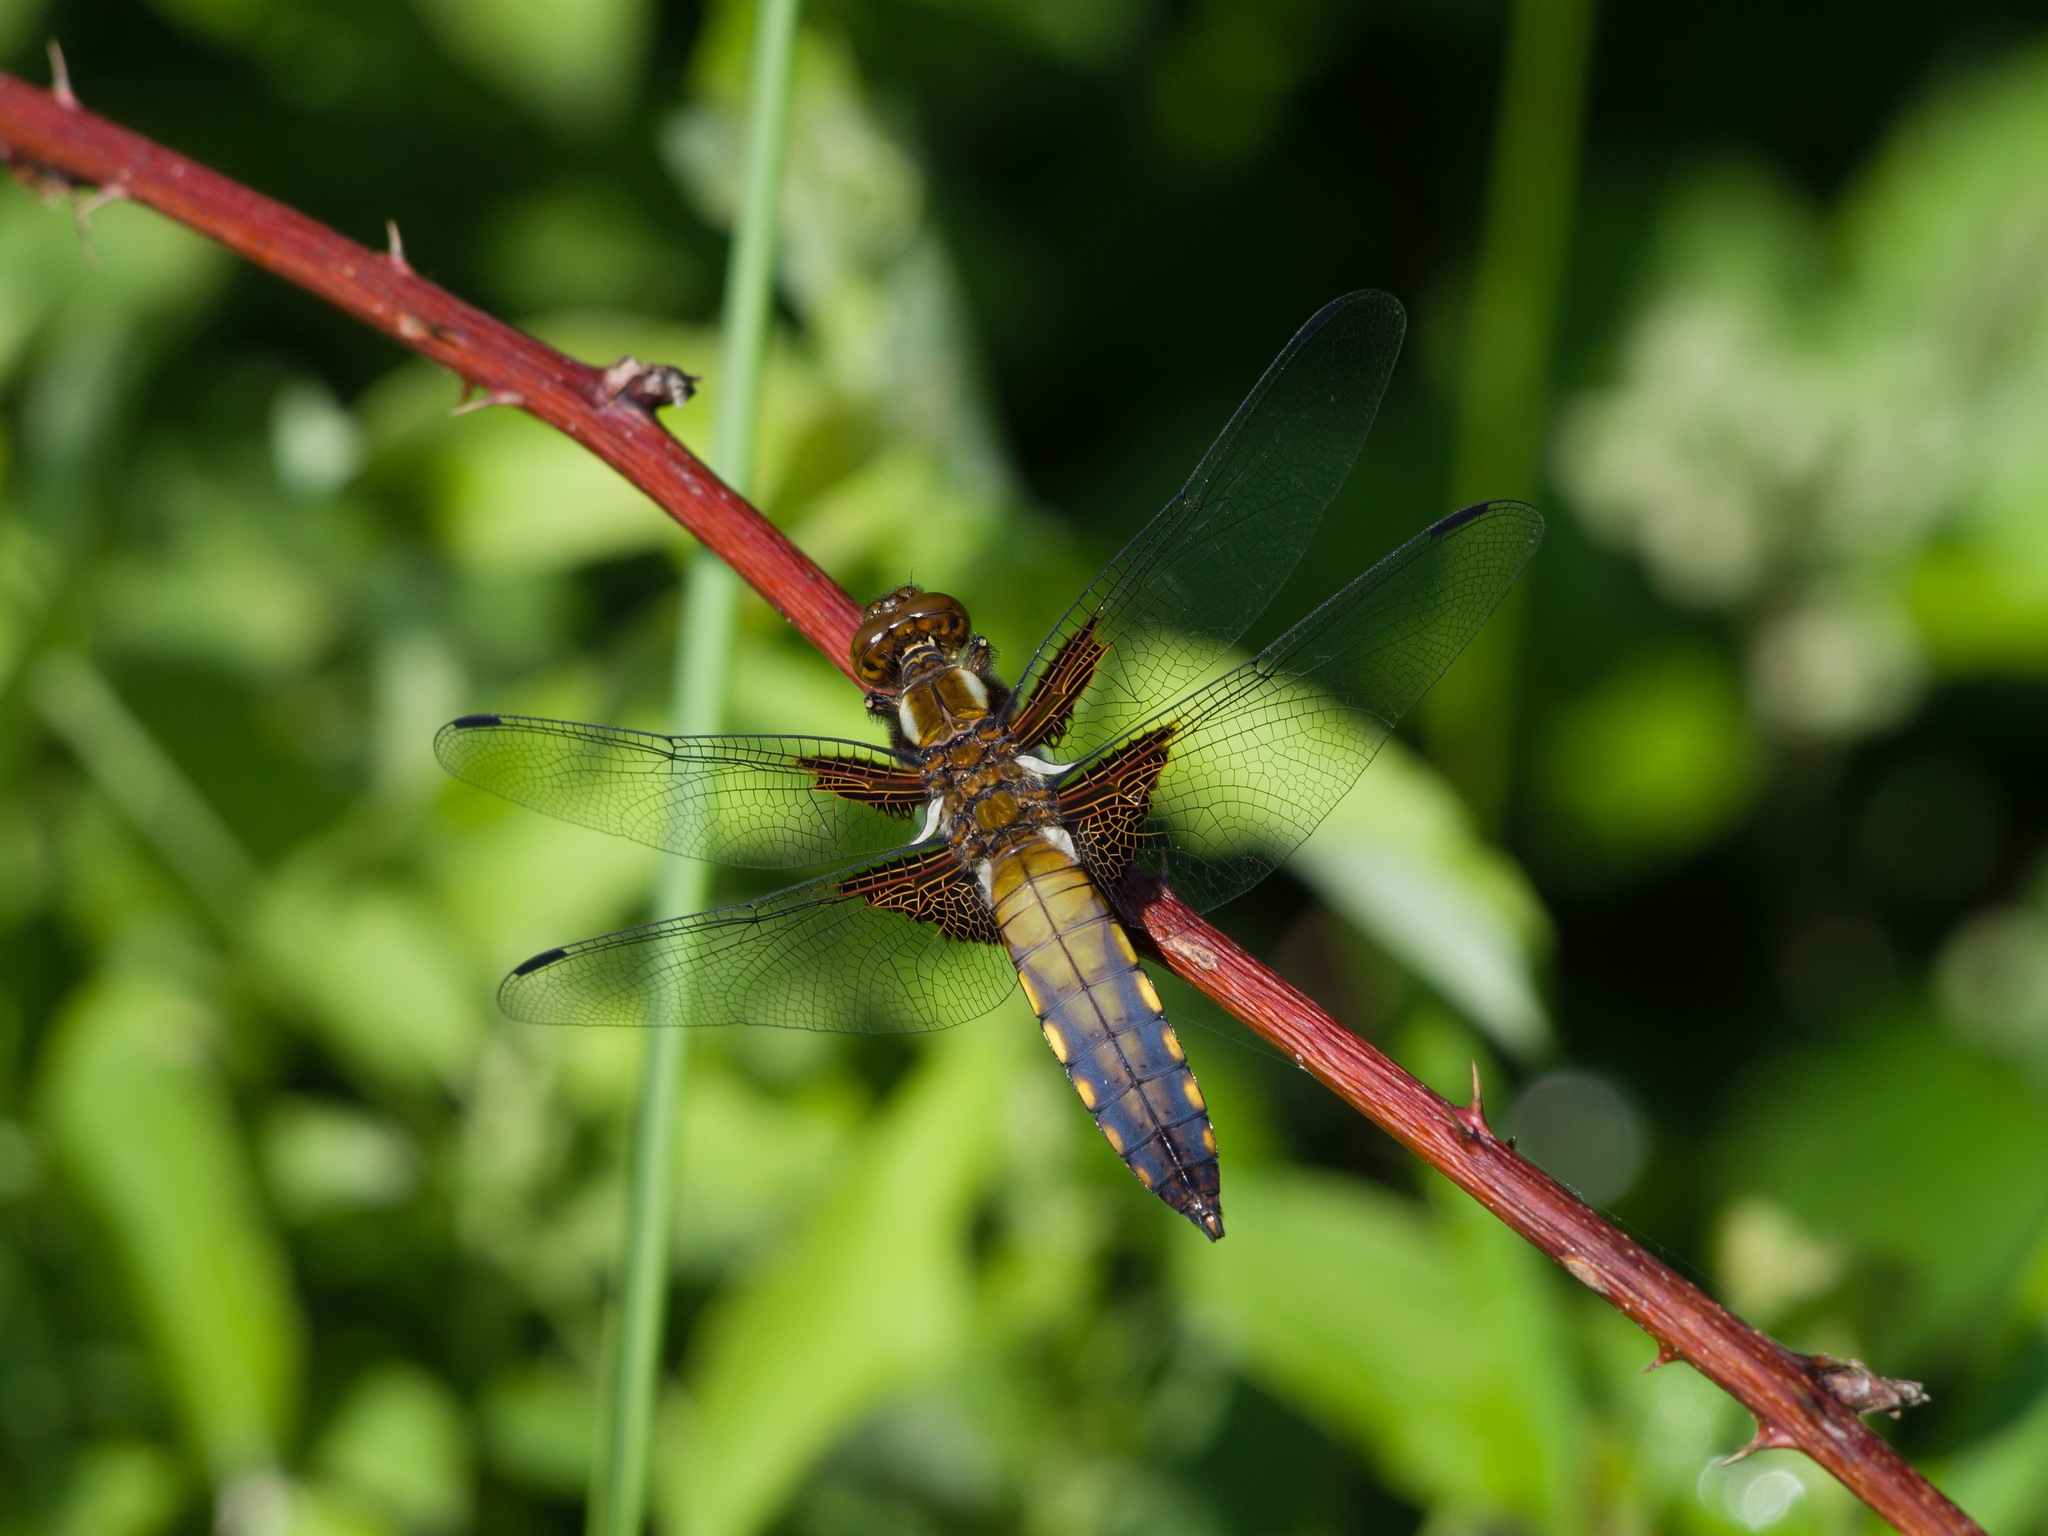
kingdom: Animalia
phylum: Arthropoda
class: Insecta
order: Odonata
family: Libellulidae
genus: Libellula
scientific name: Libellula depressa
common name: Broad-bodied chaser
